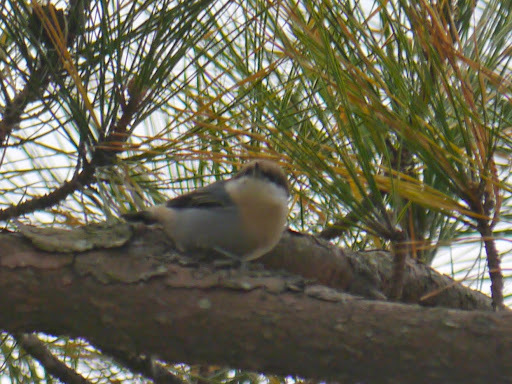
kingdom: Animalia
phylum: Chordata
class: Aves
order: Passeriformes
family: Sittidae
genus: Sitta
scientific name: Sitta pusilla
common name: Brown-headed nuthatch
